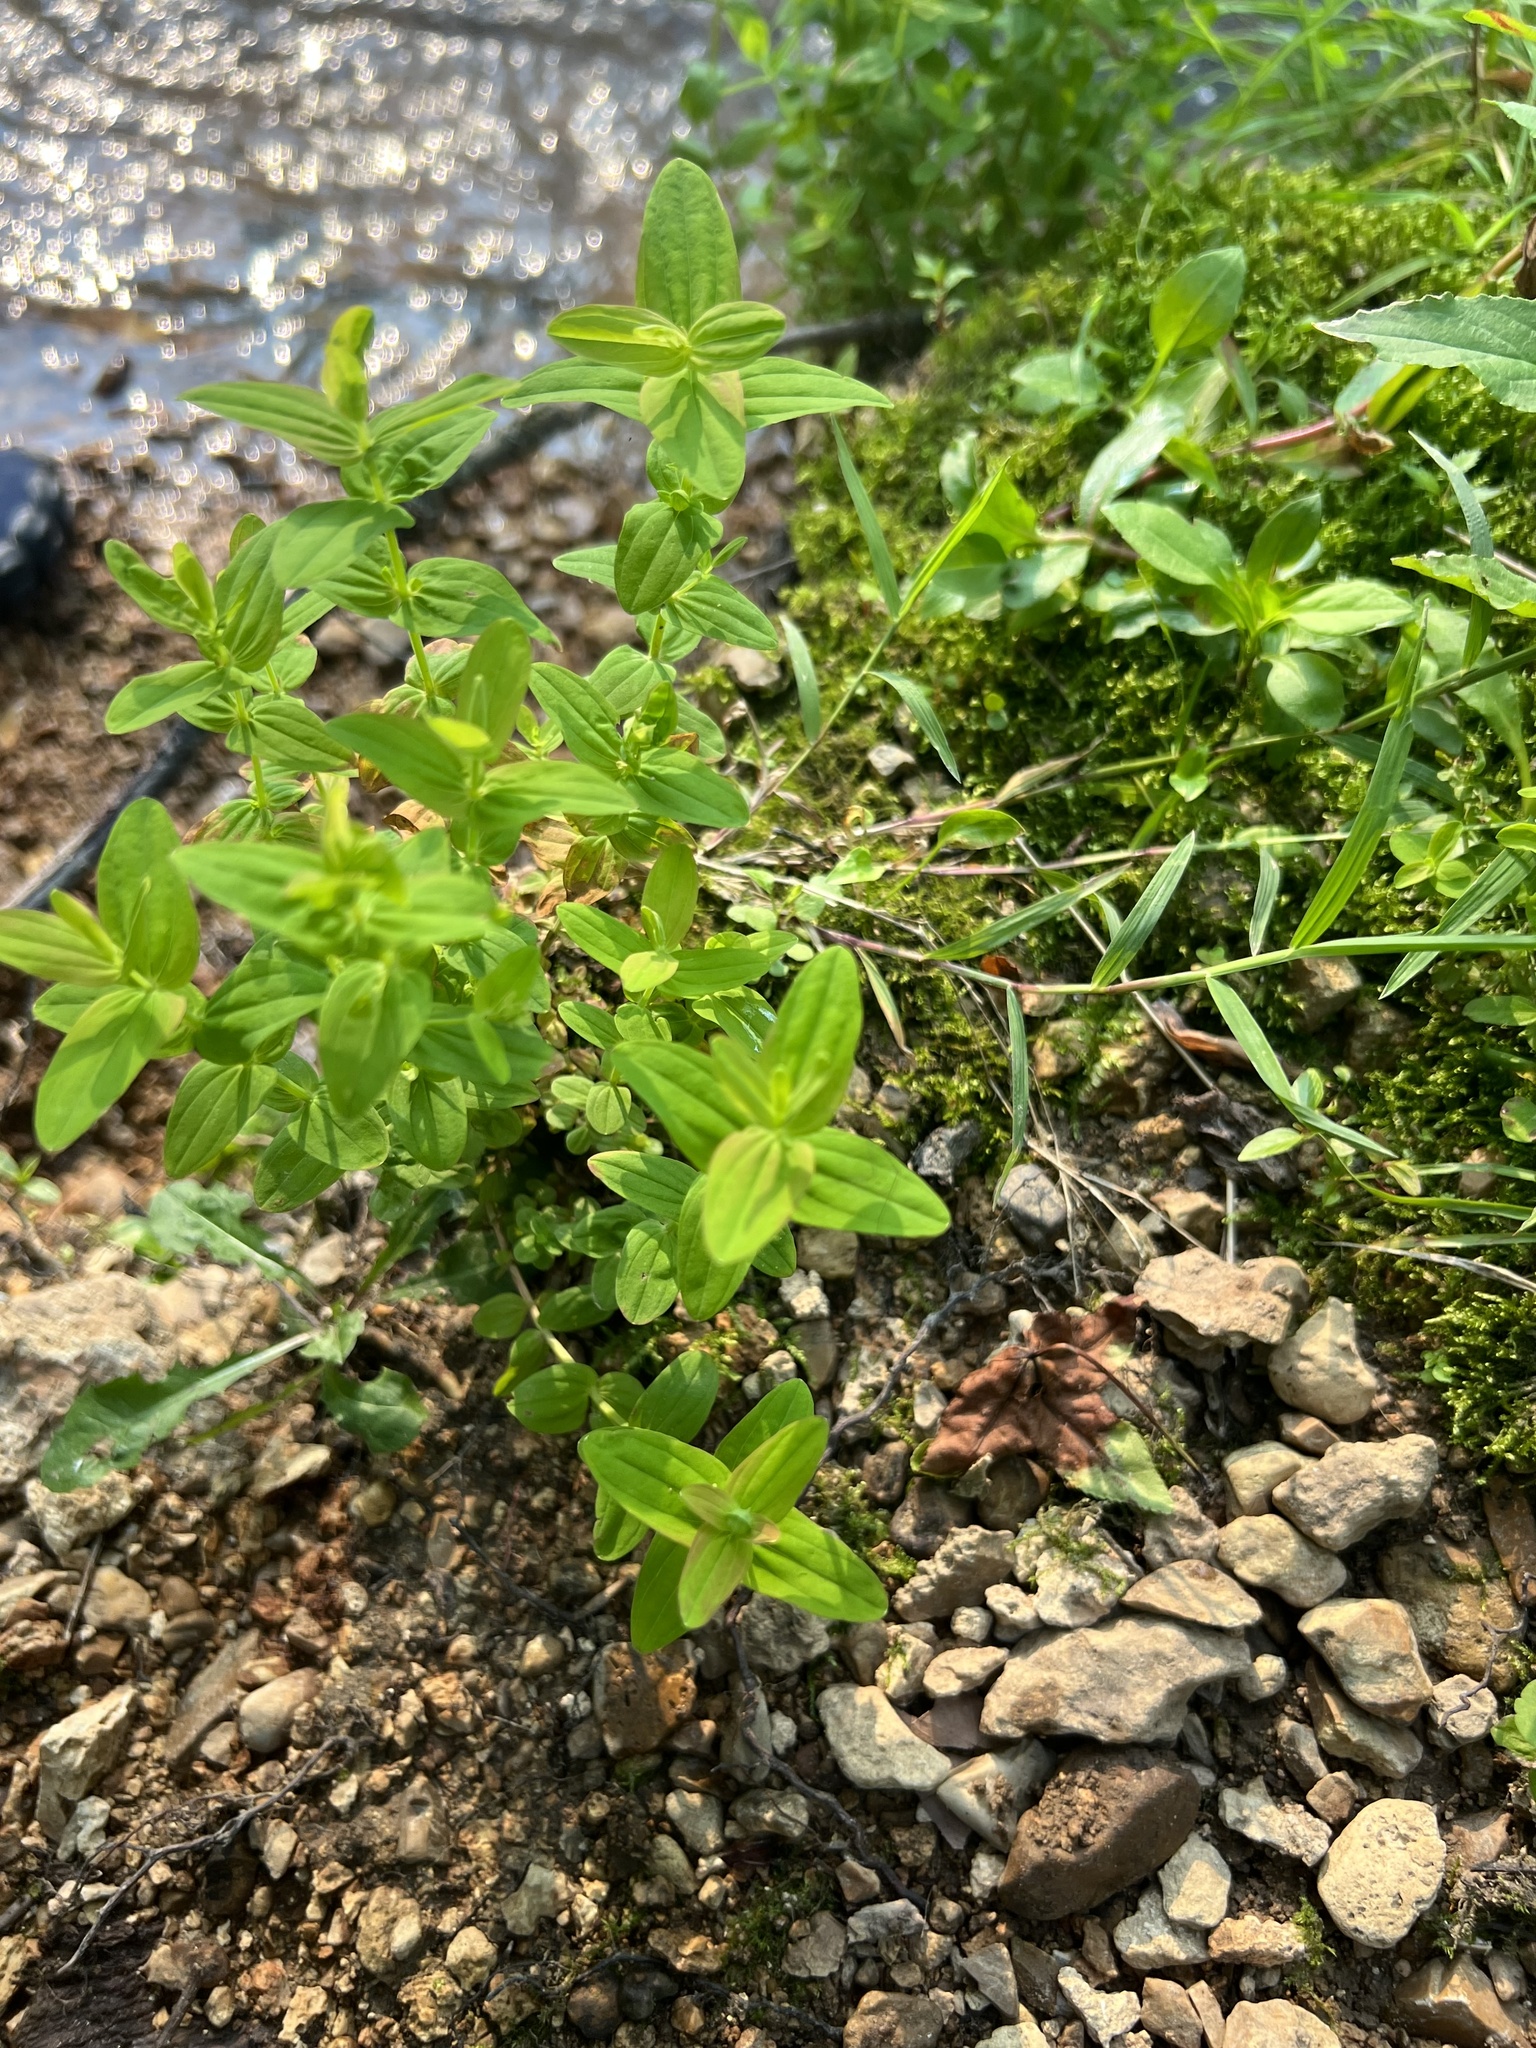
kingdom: Plantae
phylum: Tracheophyta
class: Magnoliopsida
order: Malpighiales
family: Hypericaceae
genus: Hypericum
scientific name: Hypericum mutilum
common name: Dwarf st. john's-wort
